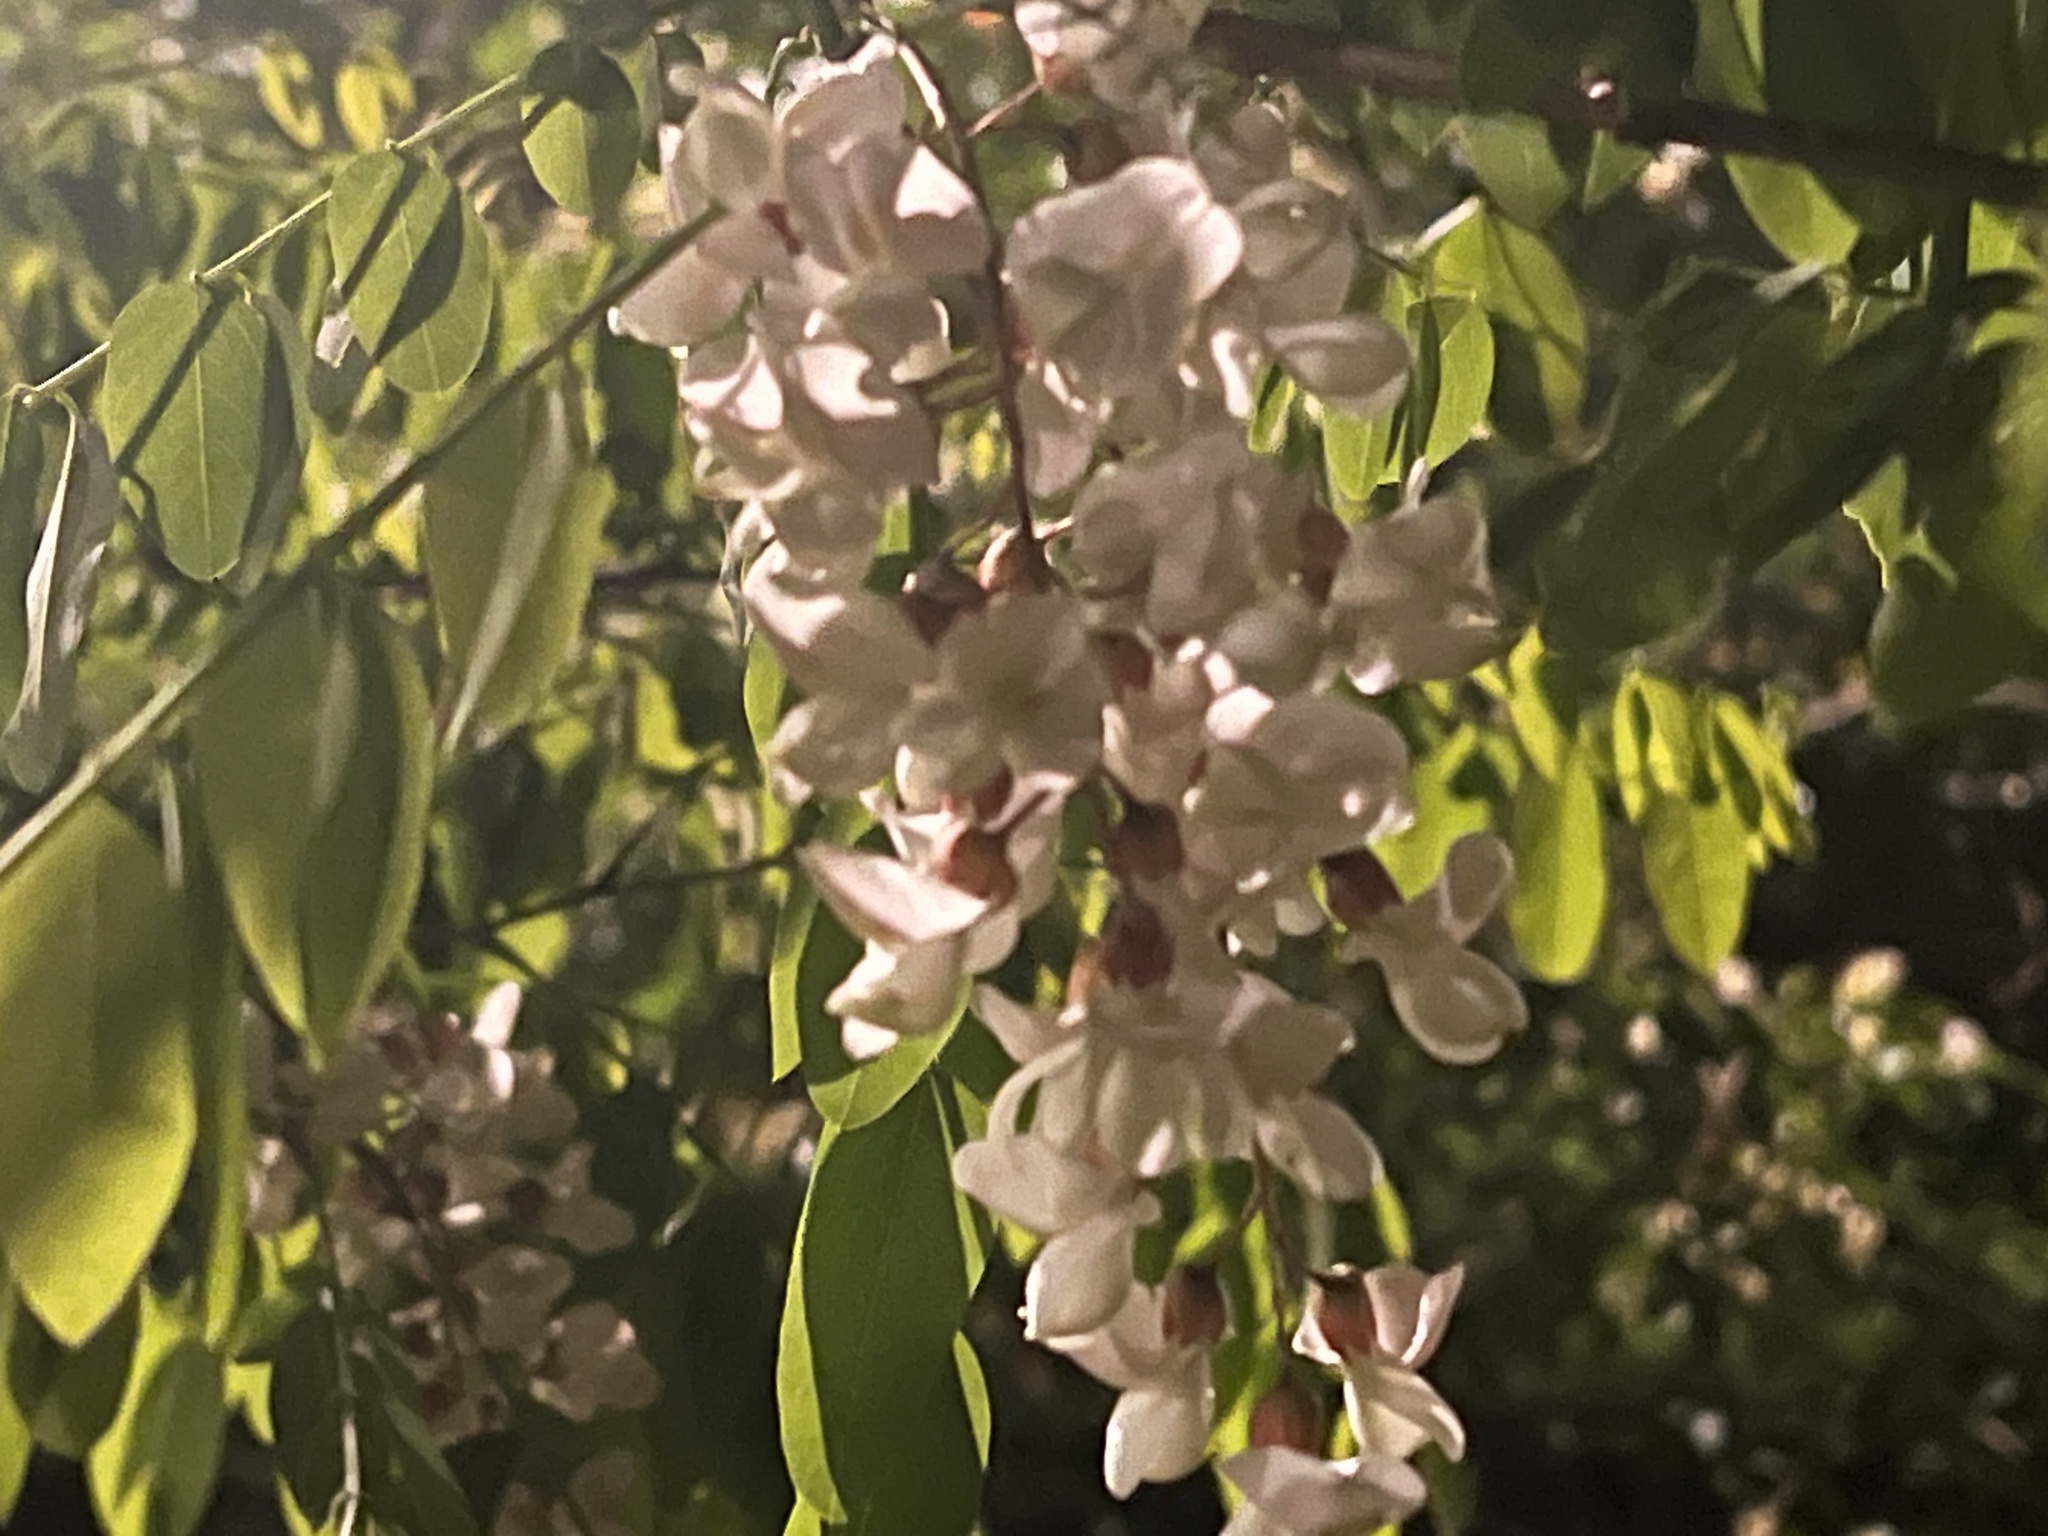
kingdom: Plantae
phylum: Tracheophyta
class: Magnoliopsida
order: Fabales
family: Fabaceae
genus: Robinia
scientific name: Robinia pseudoacacia
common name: Black locust
